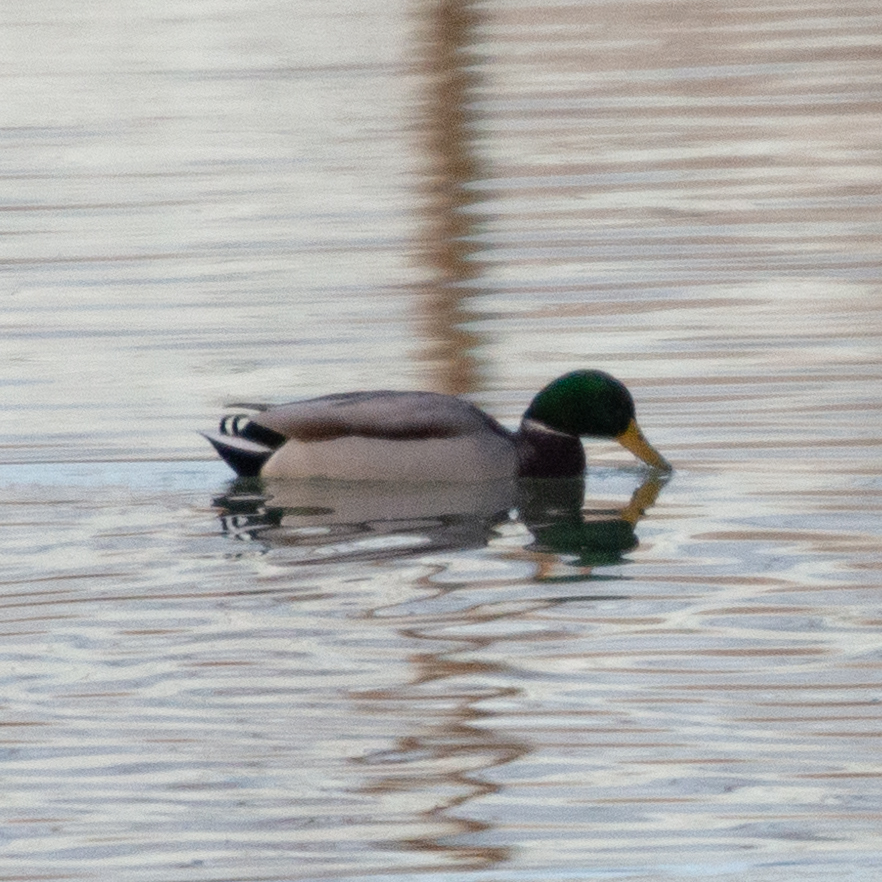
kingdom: Animalia
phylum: Chordata
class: Aves
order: Anseriformes
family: Anatidae
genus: Anas
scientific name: Anas platyrhynchos
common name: Mallard
